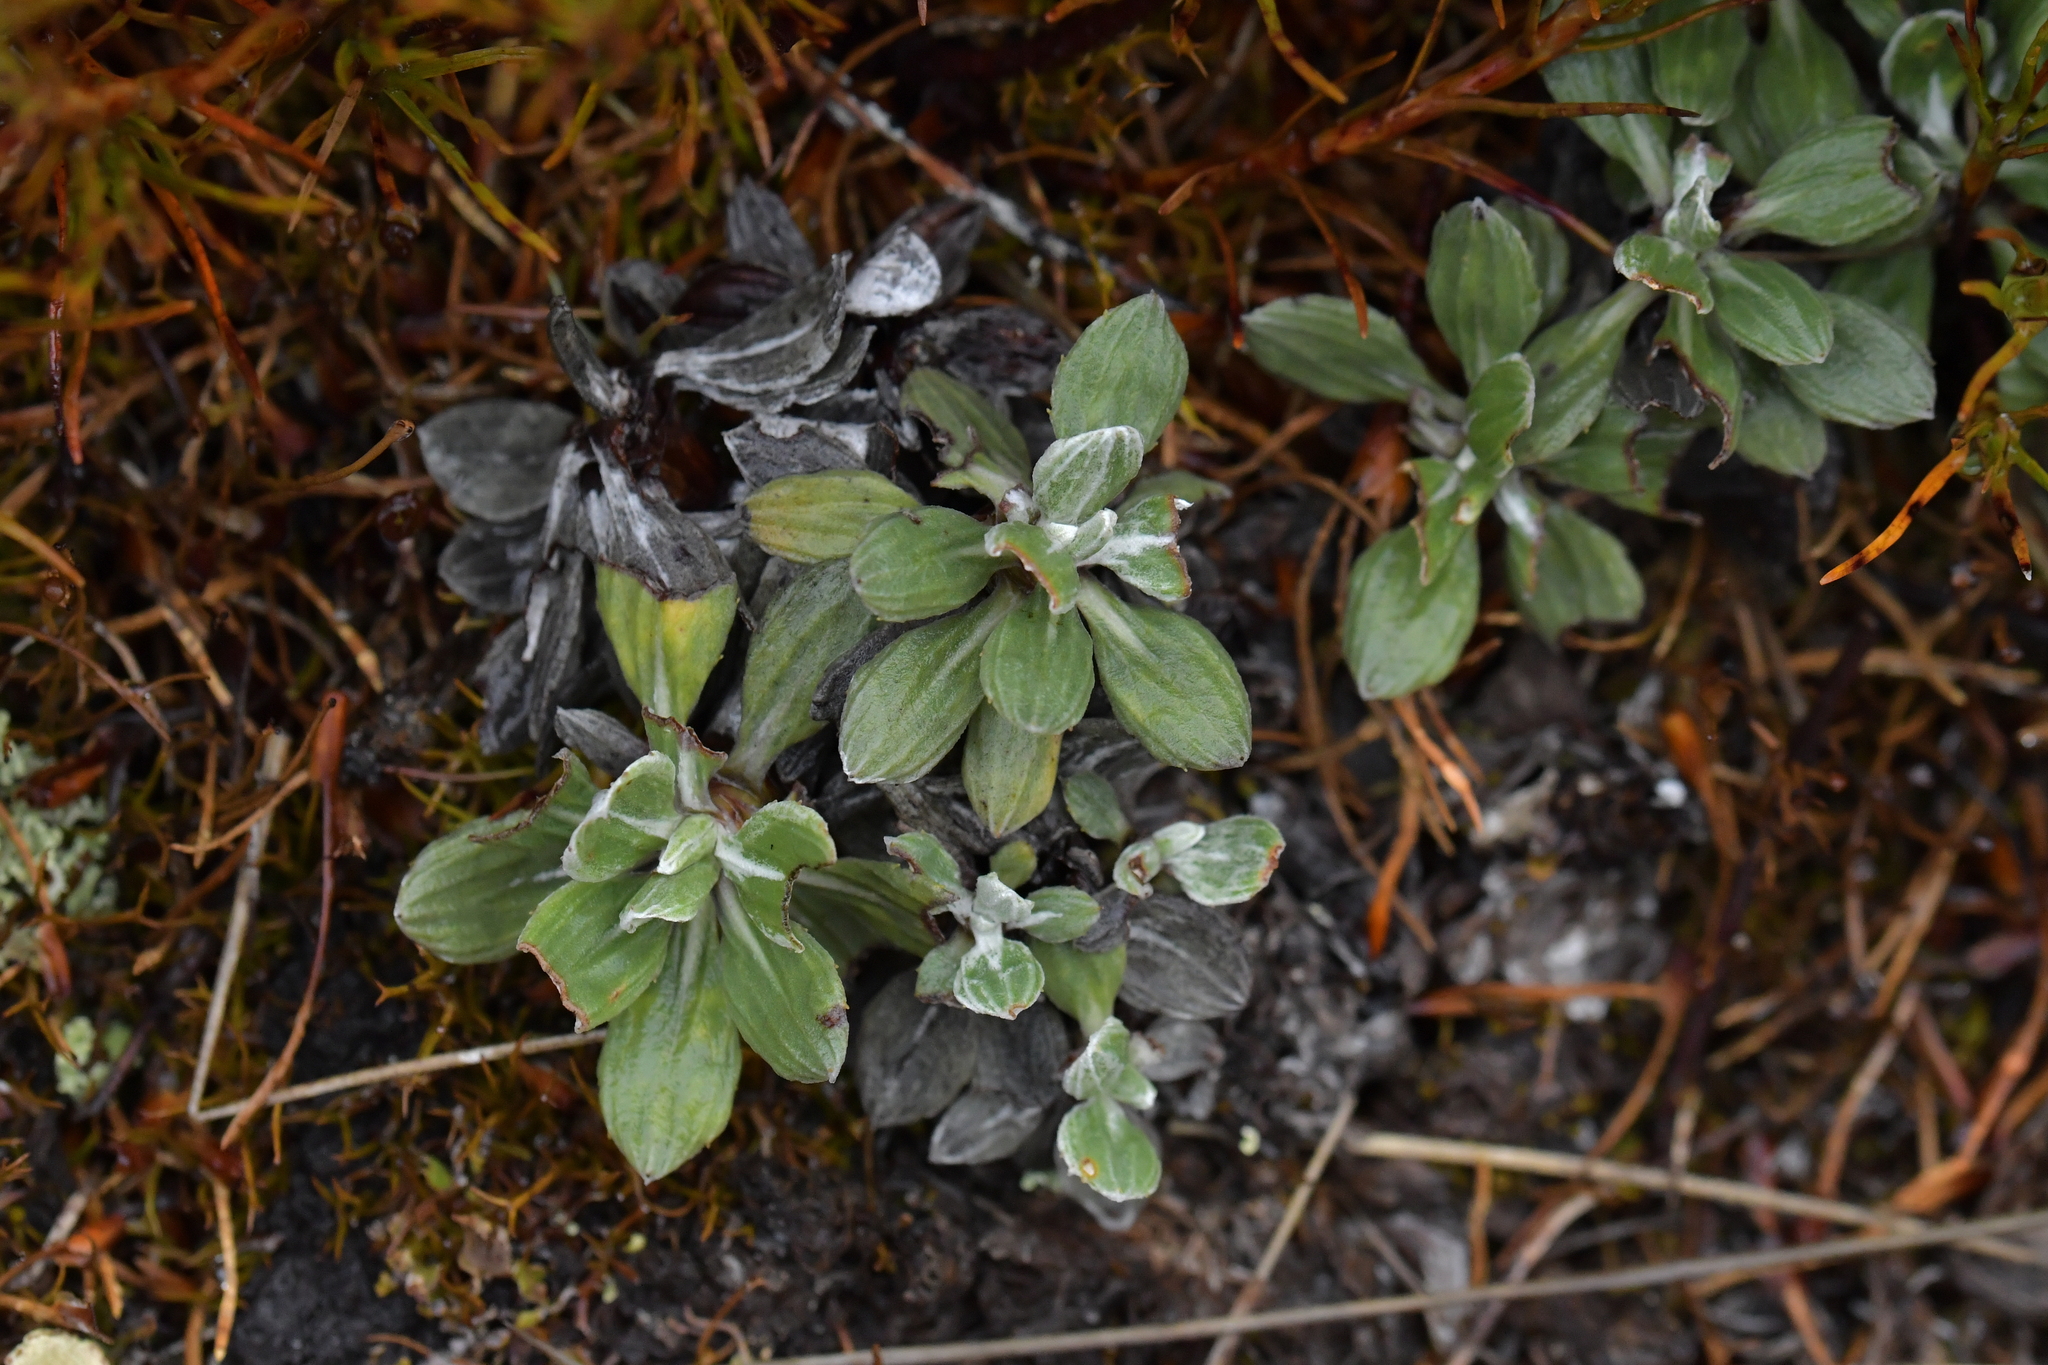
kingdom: Plantae
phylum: Tracheophyta
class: Magnoliopsida
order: Asterales
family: Asteraceae
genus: Celmisia
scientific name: Celmisia discolor
